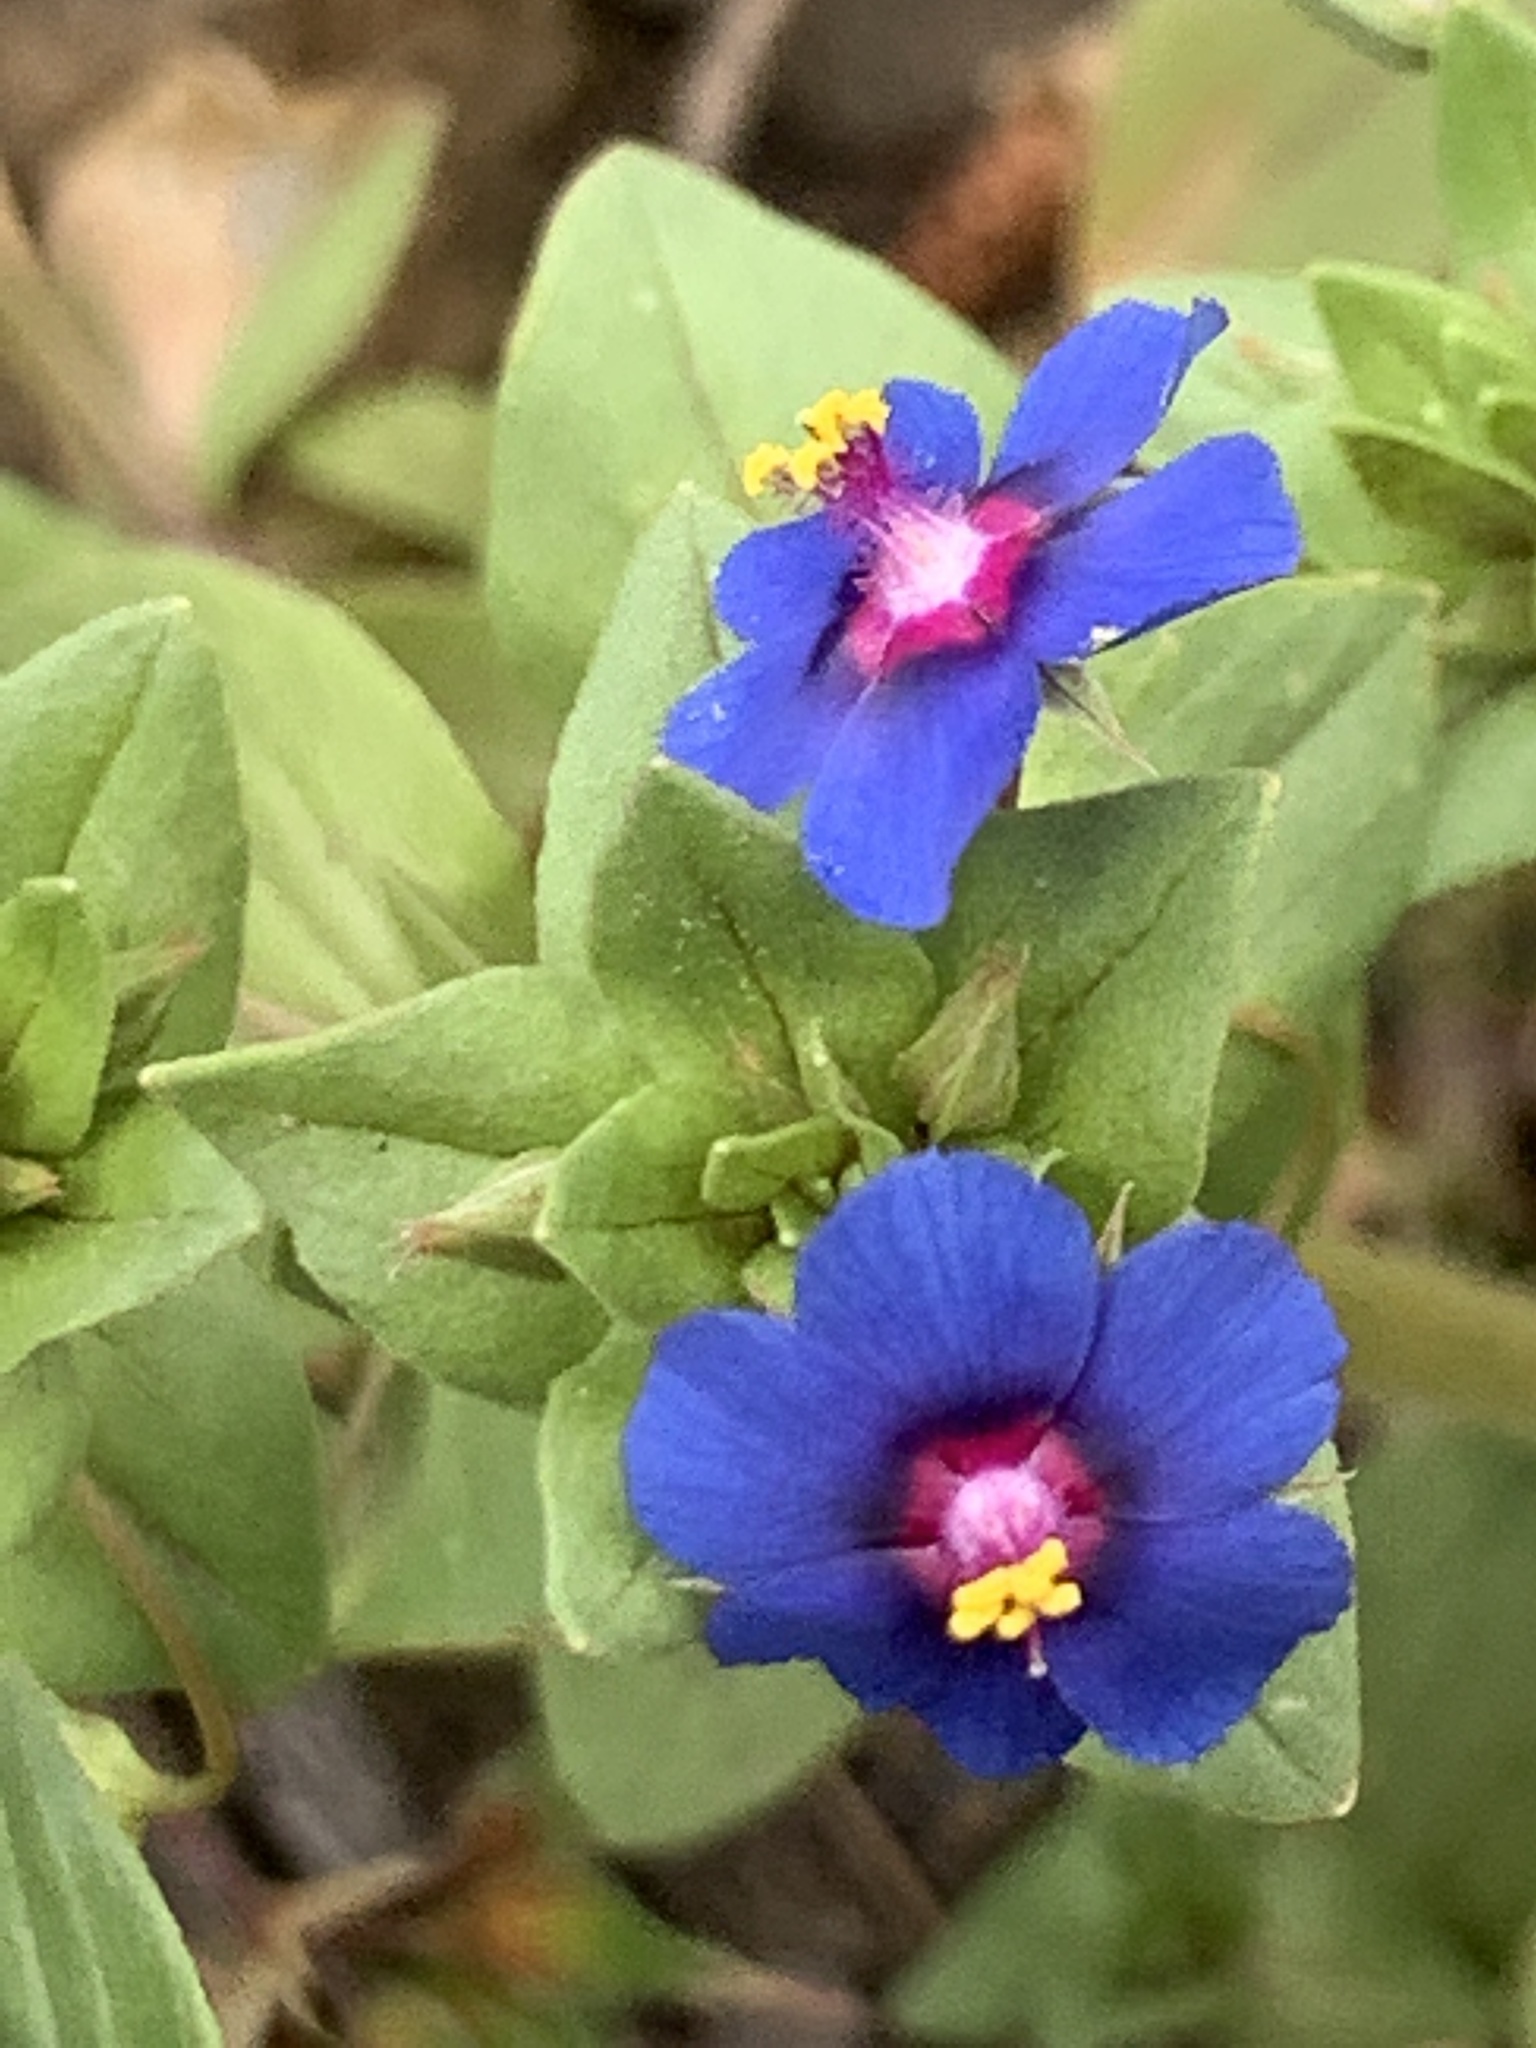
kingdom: Plantae
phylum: Tracheophyta
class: Magnoliopsida
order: Ericales
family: Primulaceae
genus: Lysimachia
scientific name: Lysimachia loeflingii
